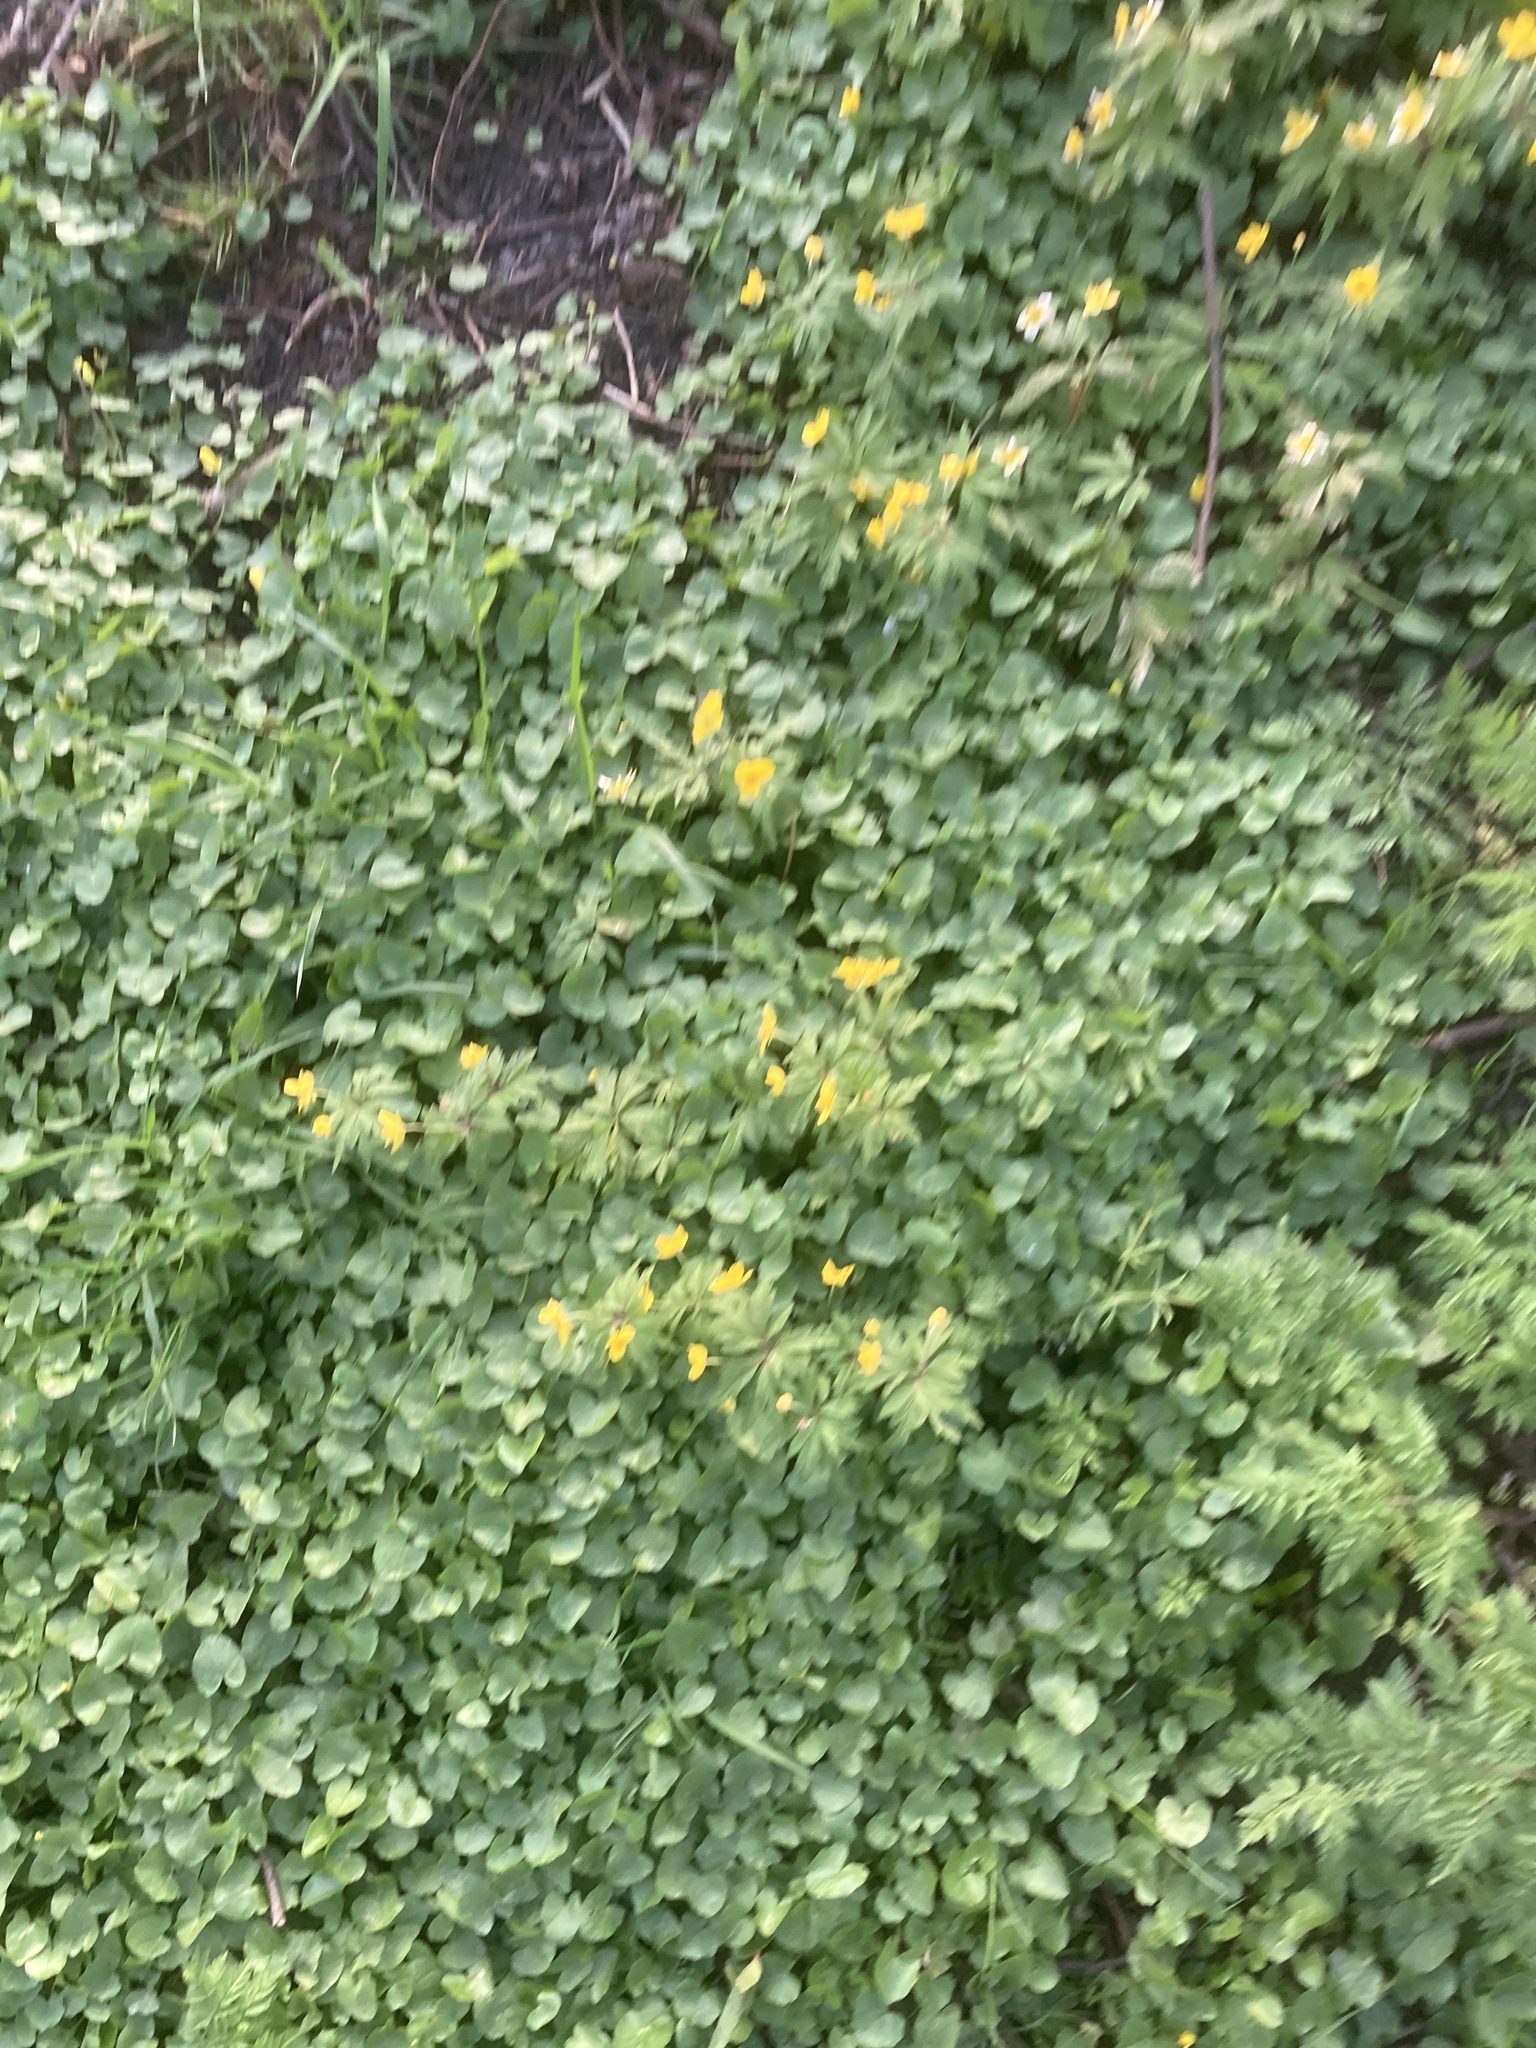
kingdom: Plantae
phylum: Tracheophyta
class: Magnoliopsida
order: Ranunculales
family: Ranunculaceae
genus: Anemone
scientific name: Anemone ranunculoides
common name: Yellow anemone
